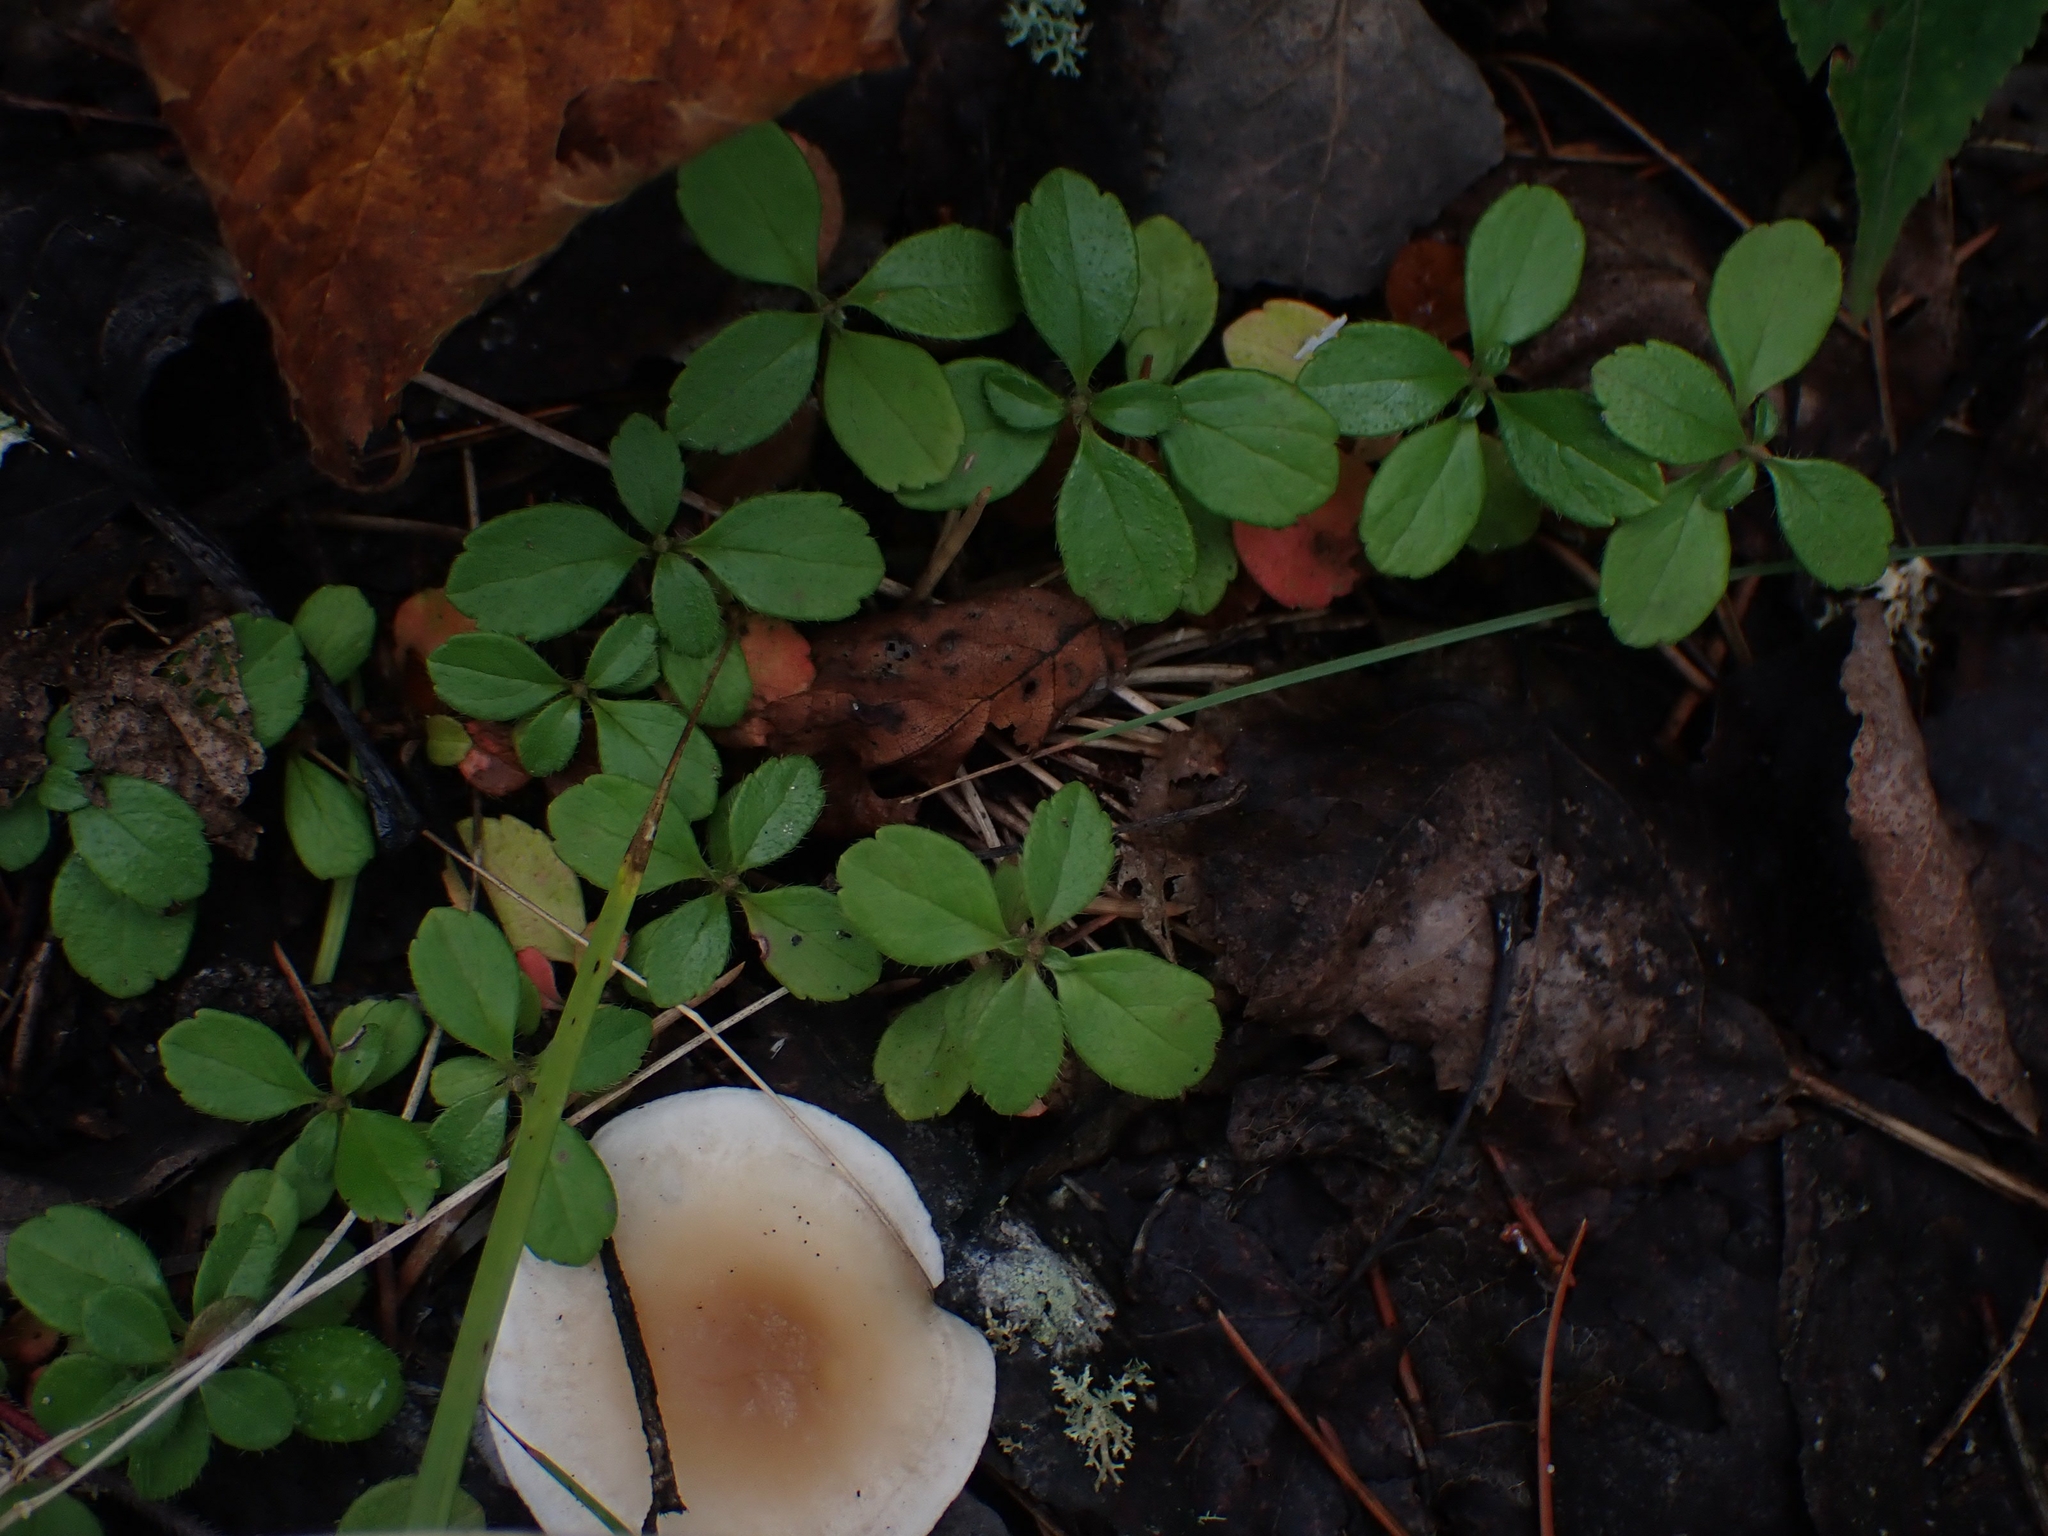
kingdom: Plantae
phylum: Tracheophyta
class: Magnoliopsida
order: Dipsacales
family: Caprifoliaceae
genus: Linnaea
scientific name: Linnaea borealis
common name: Twinflower
